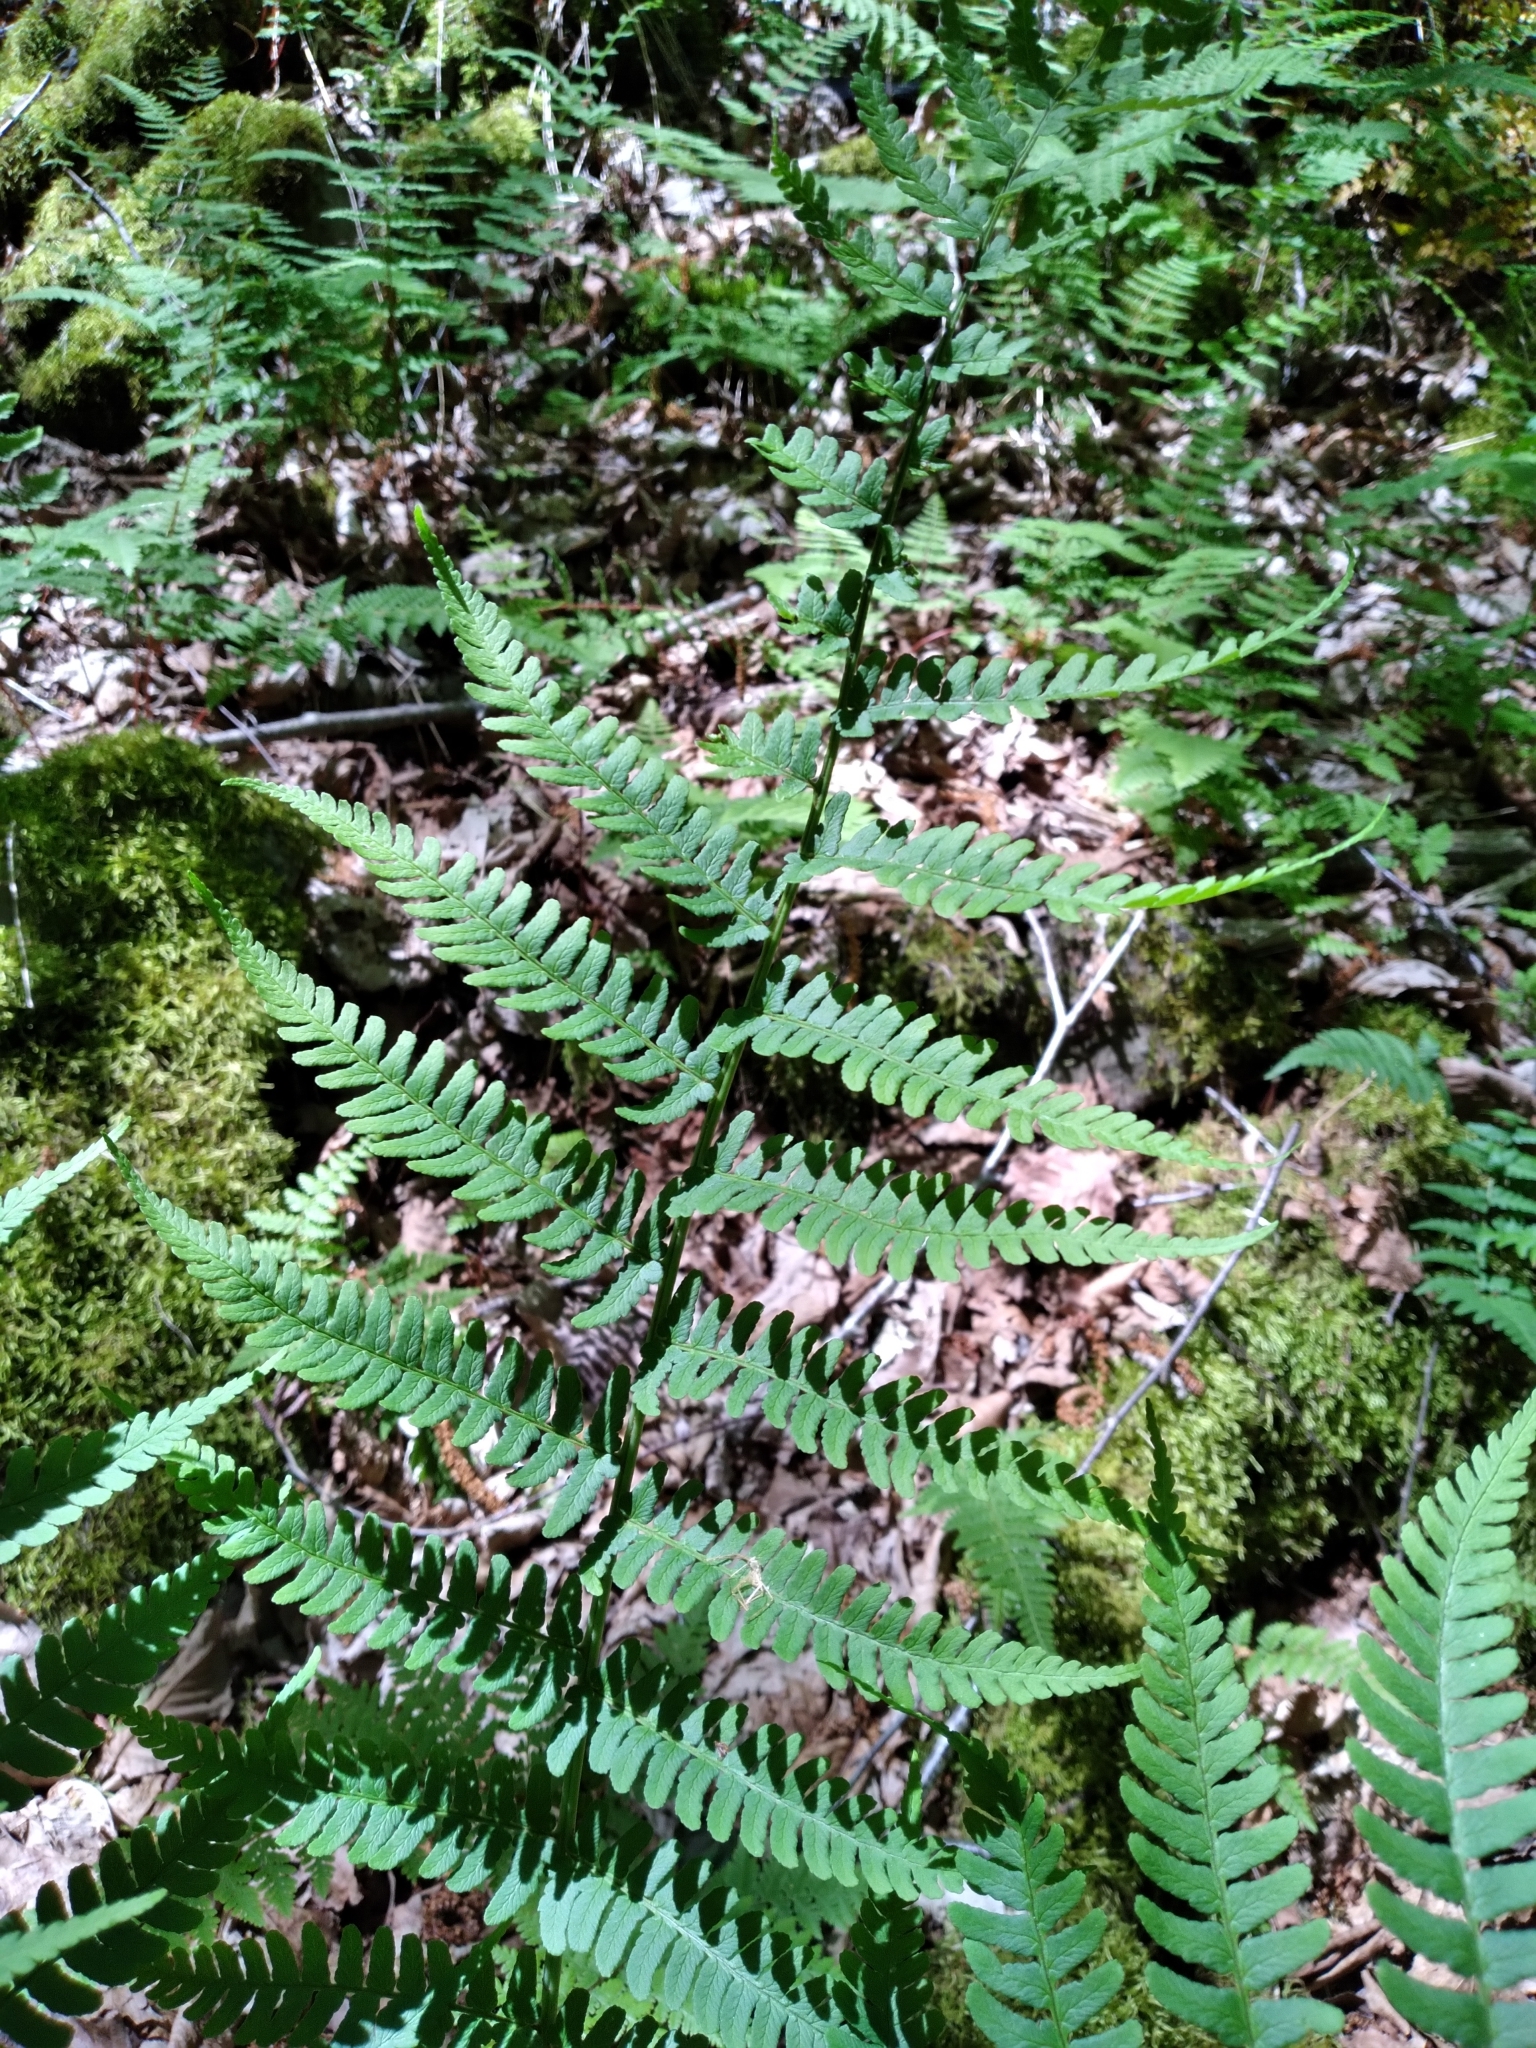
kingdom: Plantae
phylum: Tracheophyta
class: Polypodiopsida
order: Polypodiales
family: Dryopteridaceae
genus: Dryopteris
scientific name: Dryopteris marginalis
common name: Marginal wood fern
